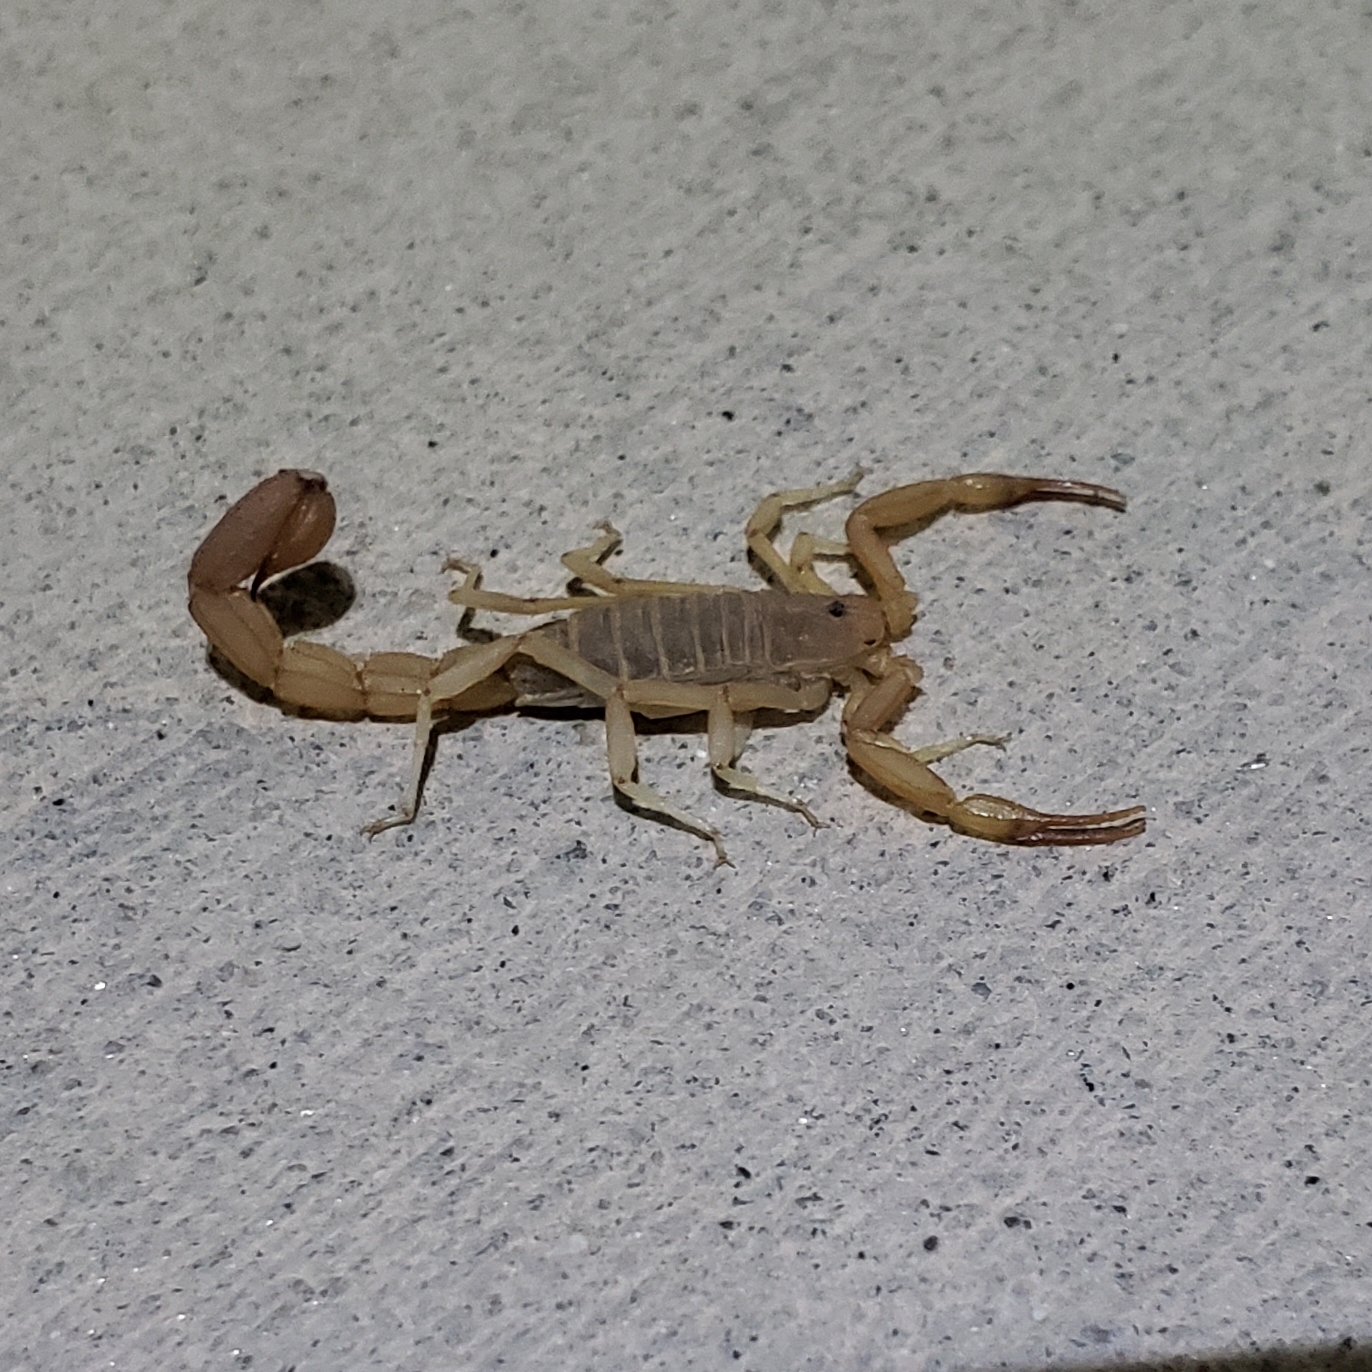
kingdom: Animalia
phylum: Arthropoda
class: Arachnida
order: Scorpiones
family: Vaejovidae
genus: Paravaejovis
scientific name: Paravaejovis waeringi
